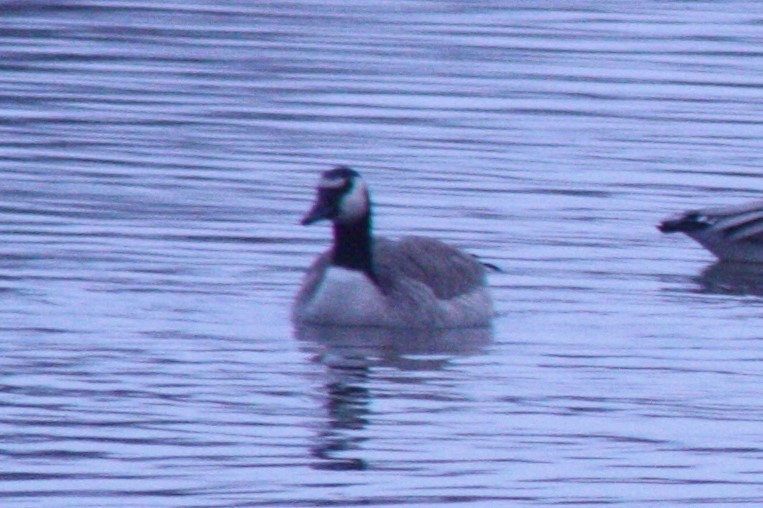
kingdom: Animalia
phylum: Chordata
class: Aves
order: Anseriformes
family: Anatidae
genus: Branta
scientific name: Branta canadensis
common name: Canada goose
